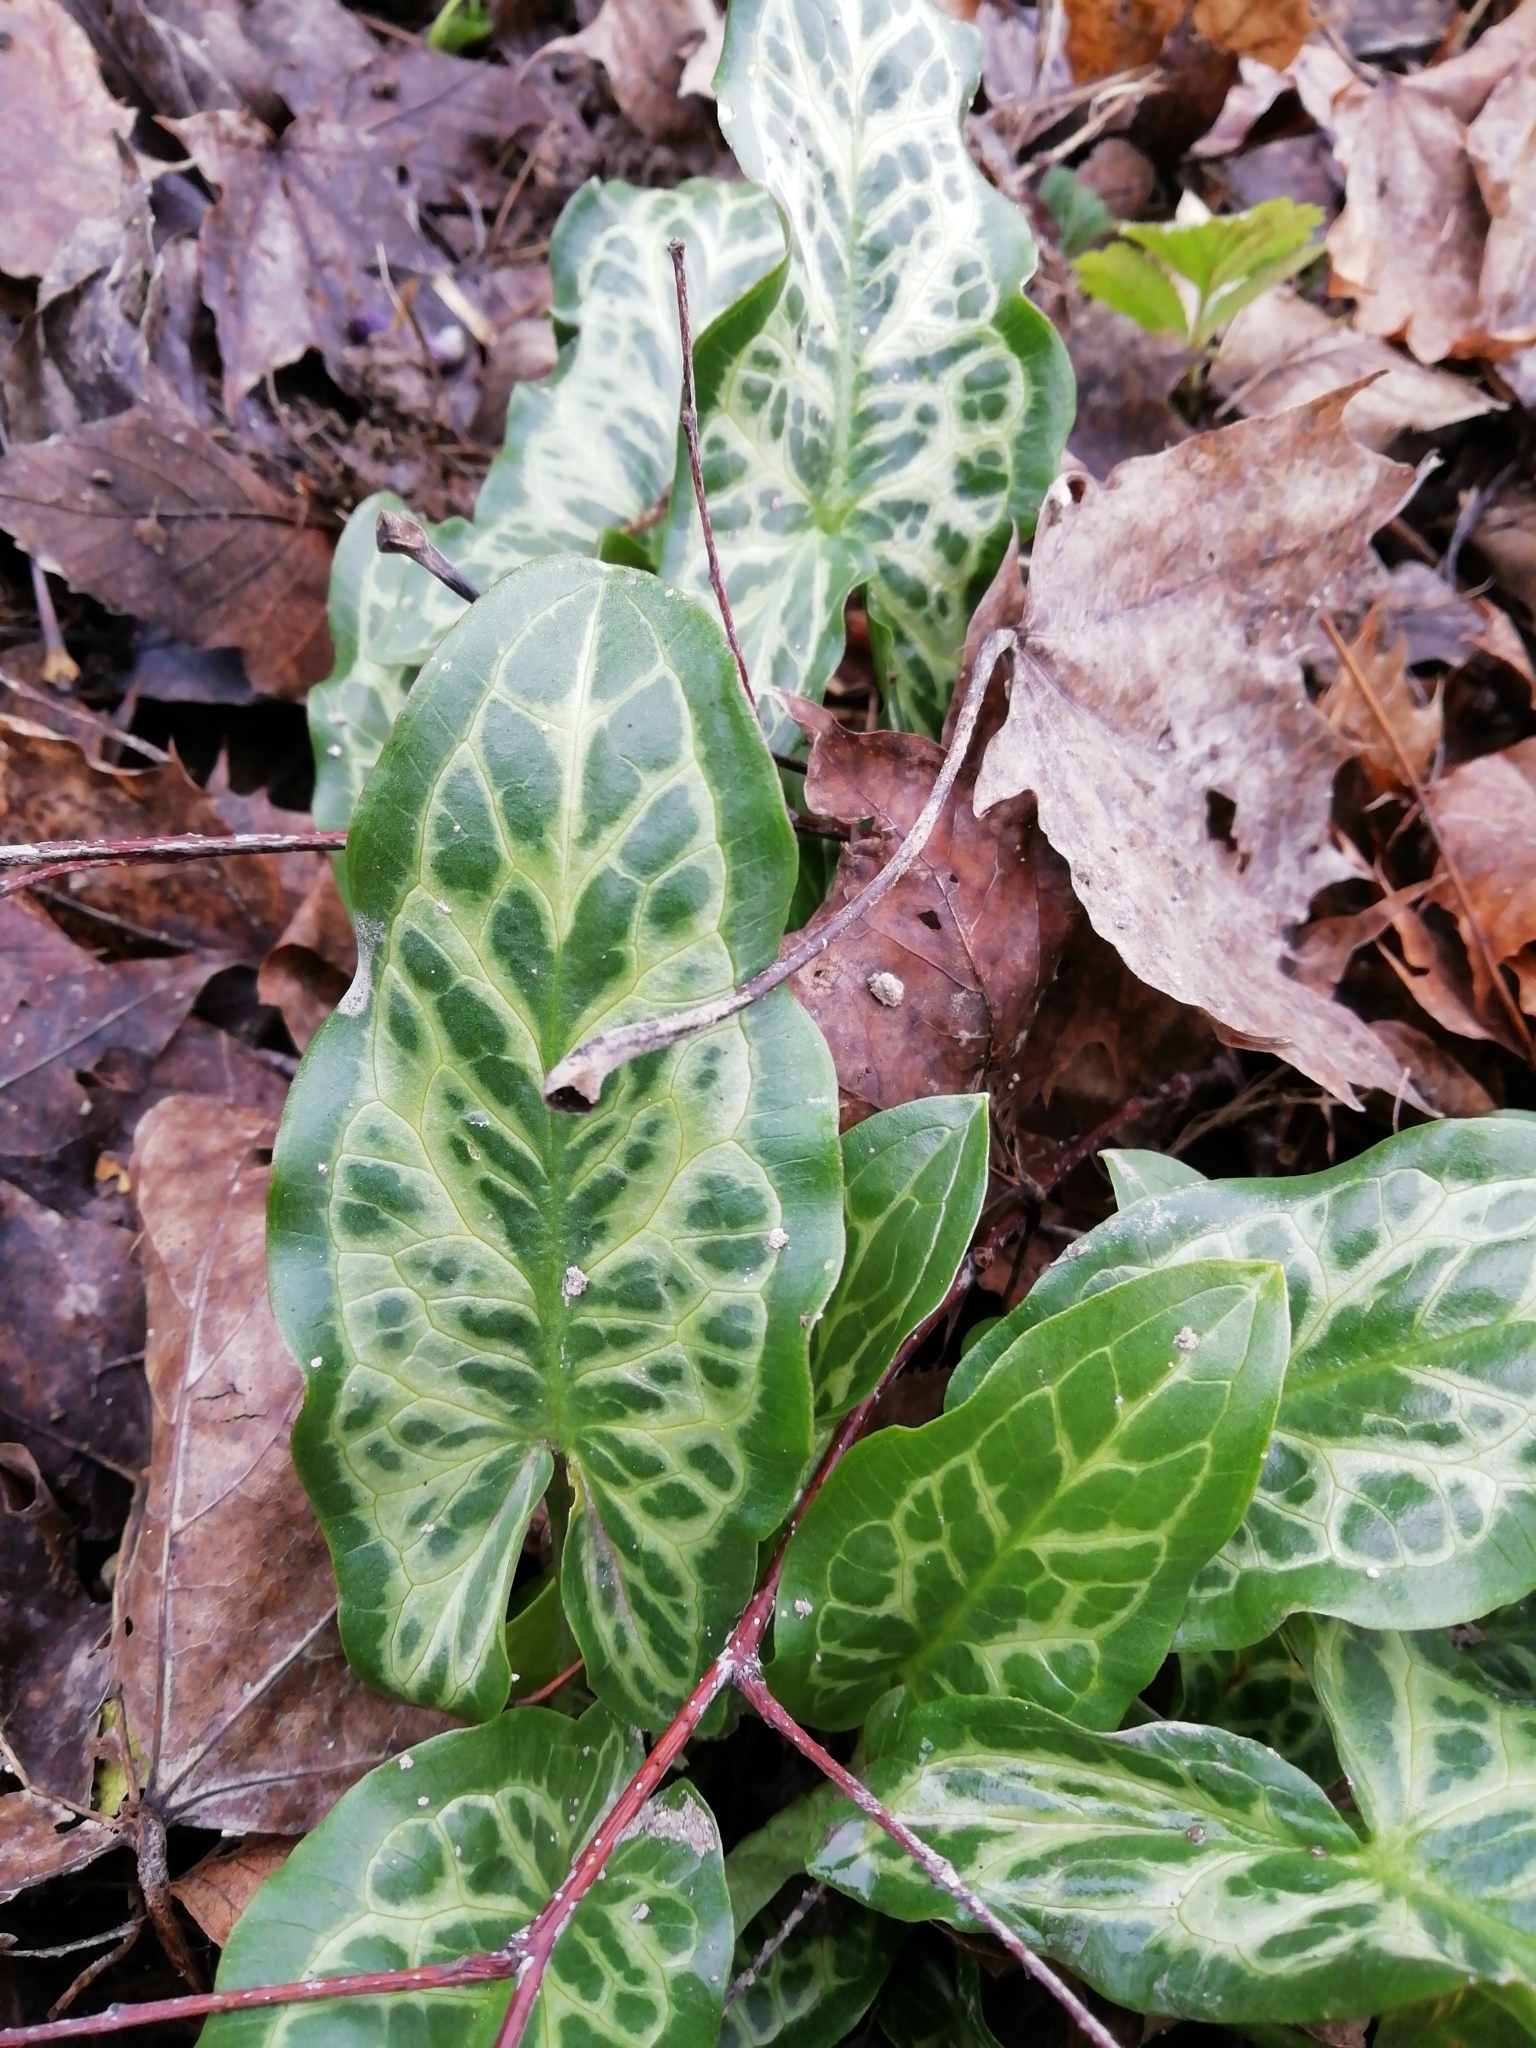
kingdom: Plantae
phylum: Tracheophyta
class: Liliopsida
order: Alismatales
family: Araceae
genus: Arum
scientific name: Arum italicum
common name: Italian lords-and-ladies
